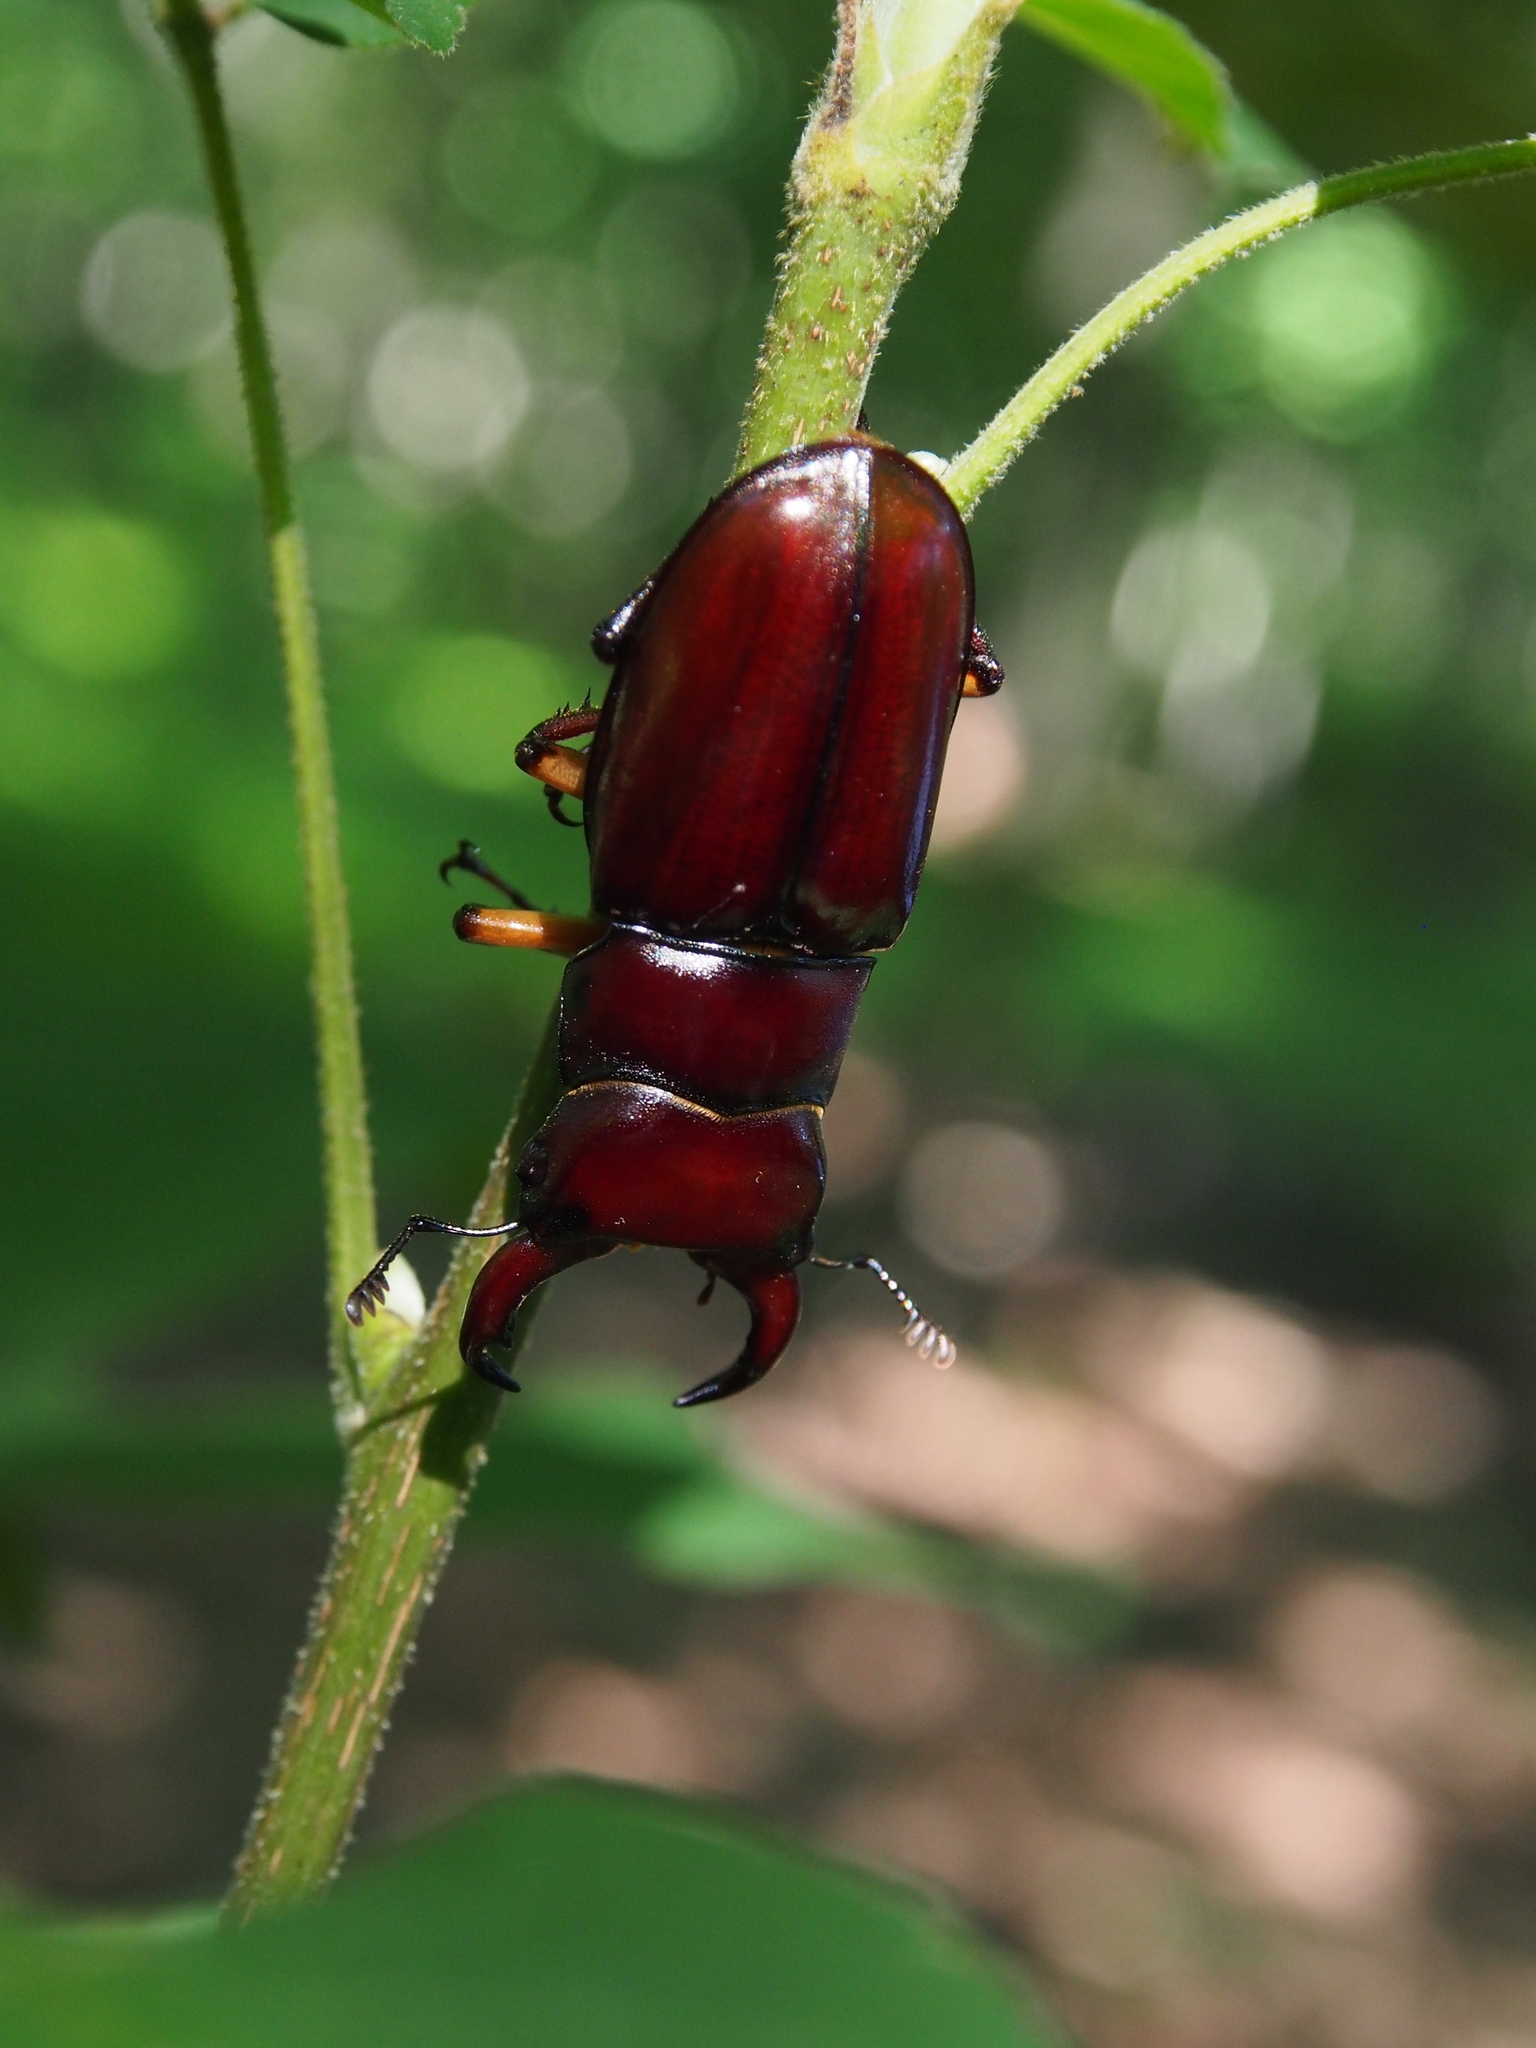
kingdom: Animalia
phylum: Arthropoda
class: Insecta
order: Coleoptera
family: Lucanidae
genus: Lucanus
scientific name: Lucanus capreolus
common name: Stag beetle
